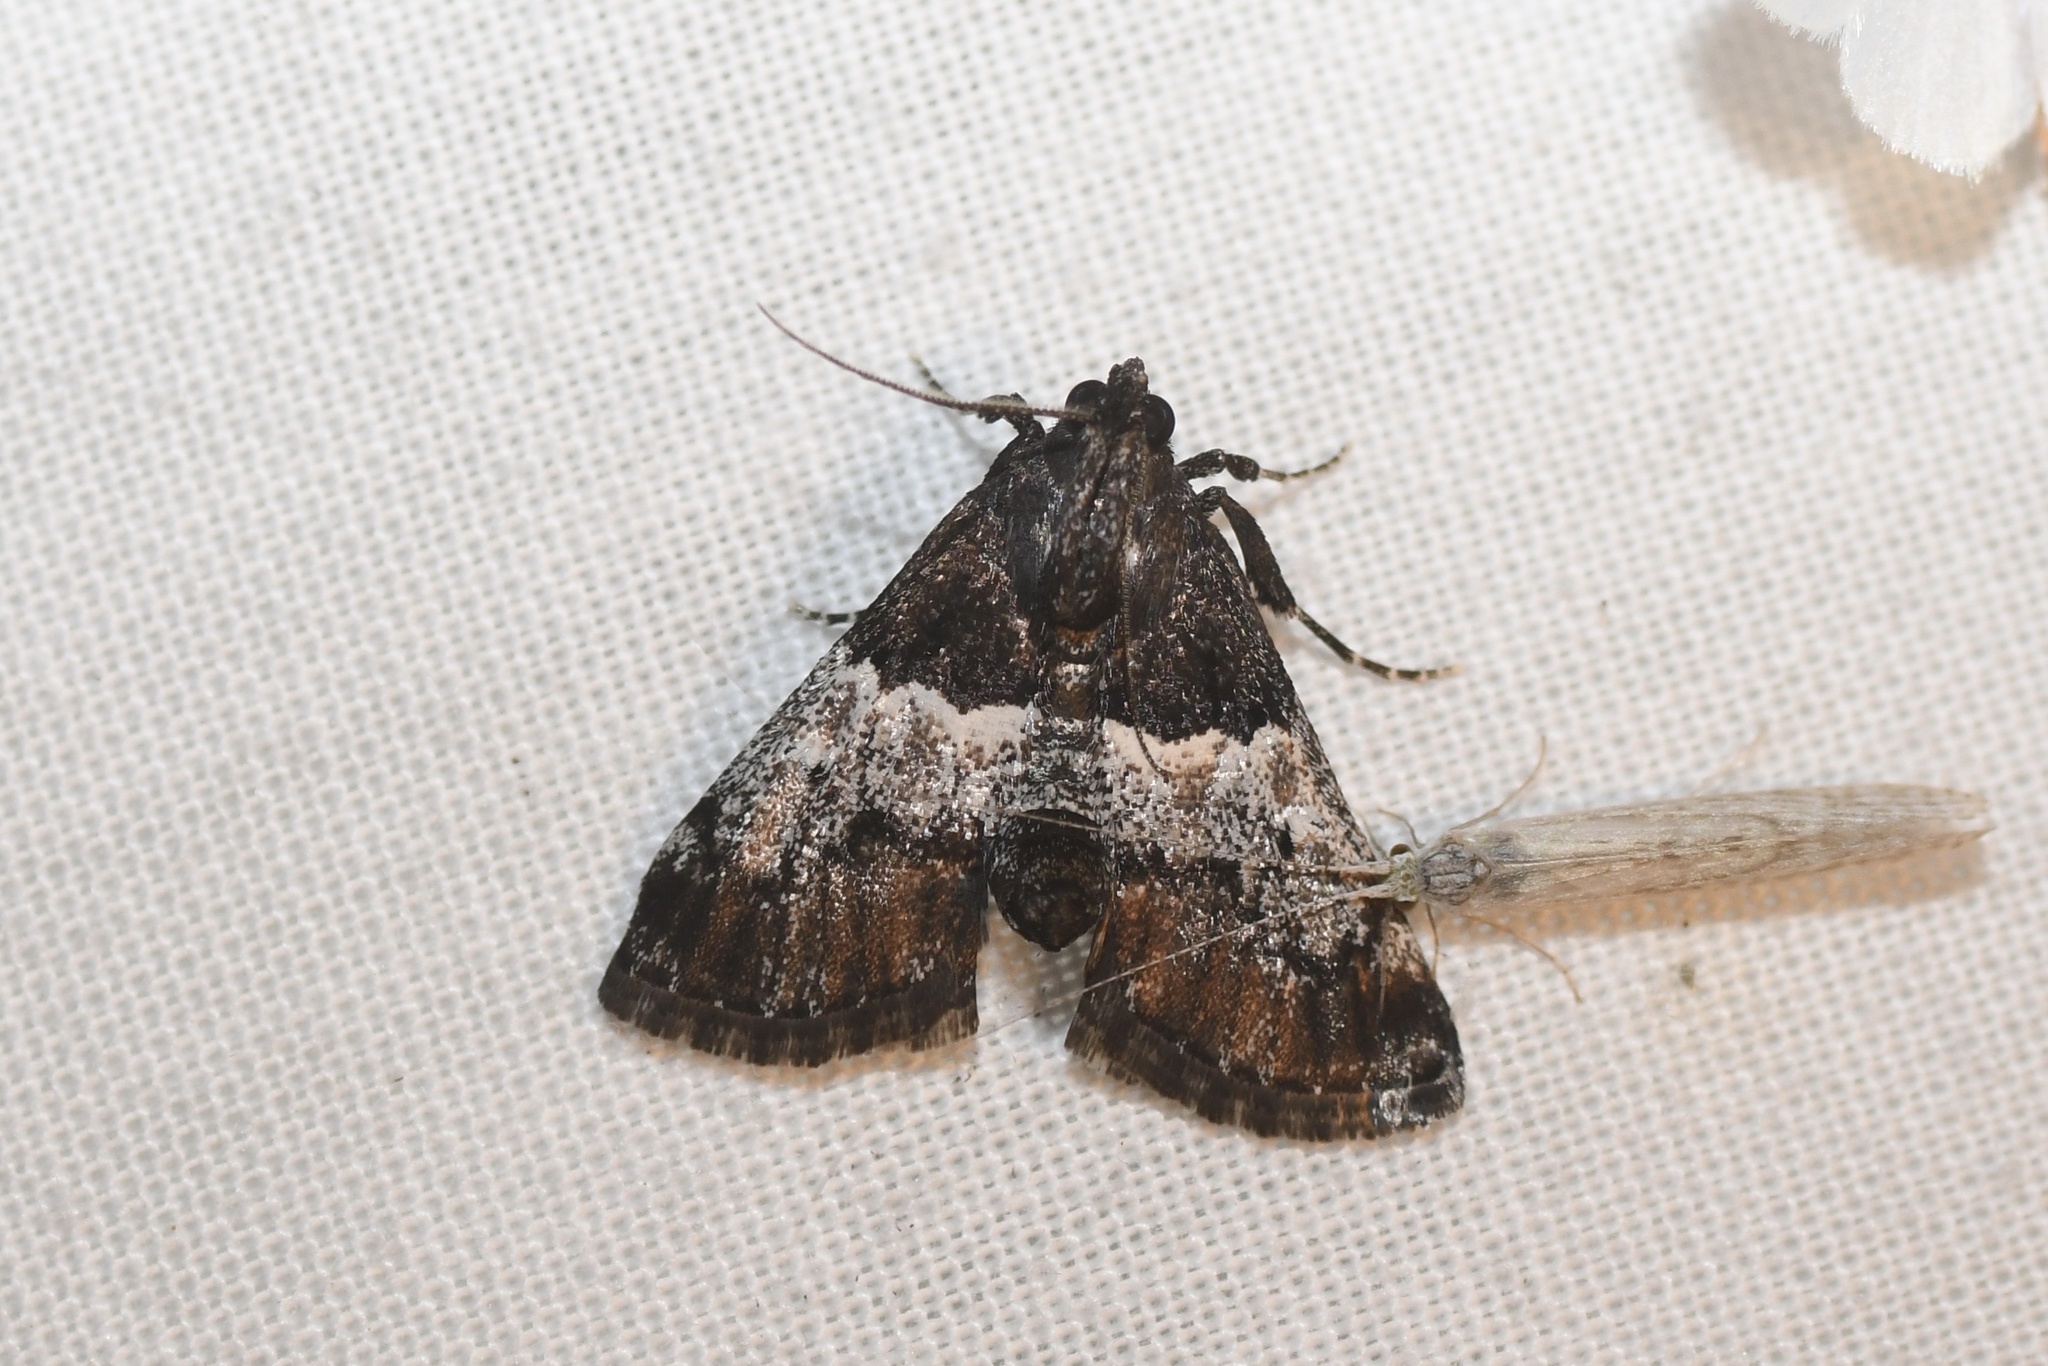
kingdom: Animalia
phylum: Arthropoda
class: Insecta
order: Lepidoptera
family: Pyralidae
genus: Macalla
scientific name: Macalla zelleri
